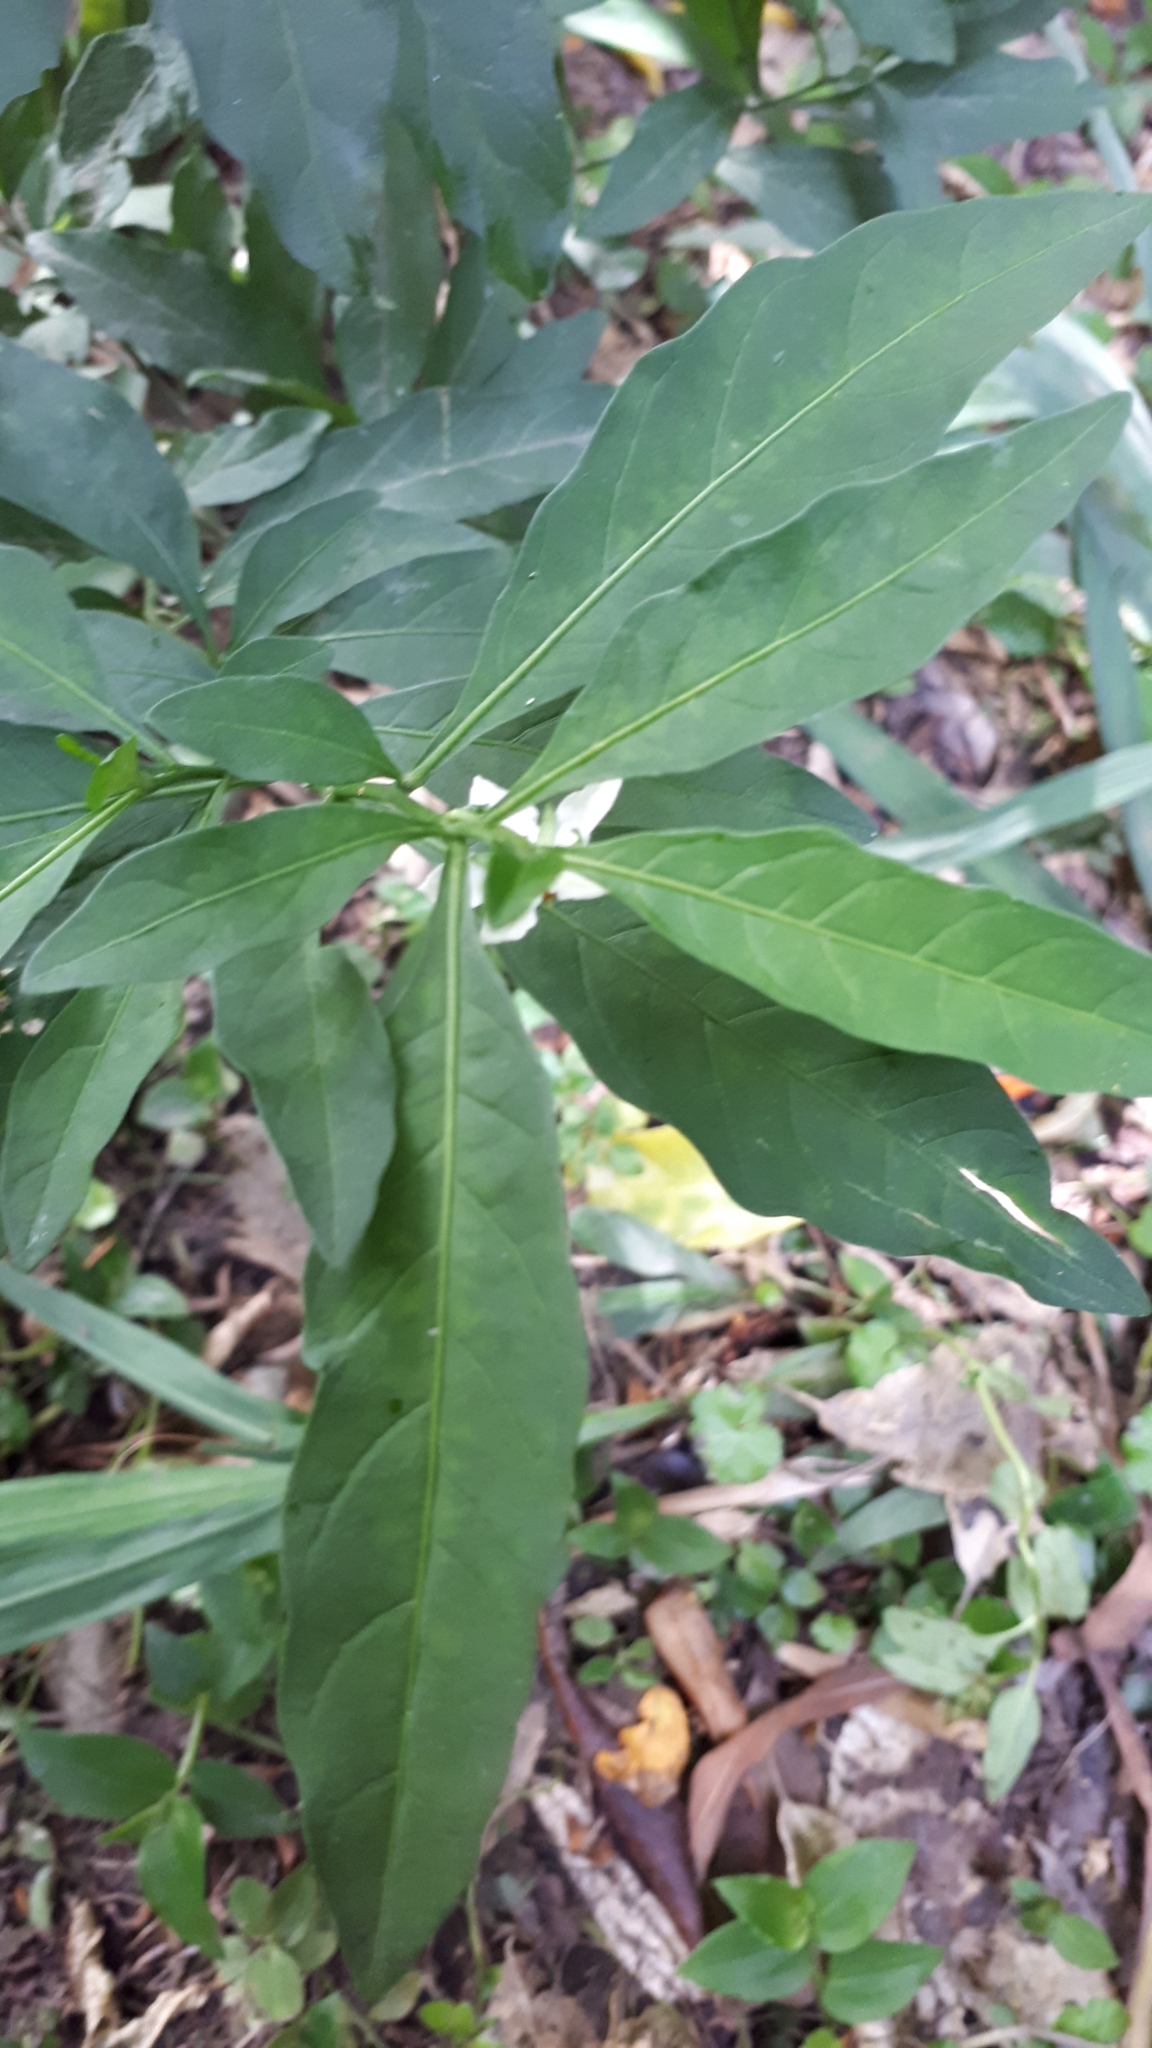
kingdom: Plantae
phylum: Tracheophyta
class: Magnoliopsida
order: Solanales
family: Solanaceae
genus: Solanum
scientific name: Solanum pseudocapsicum
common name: Jerusalem cherry
